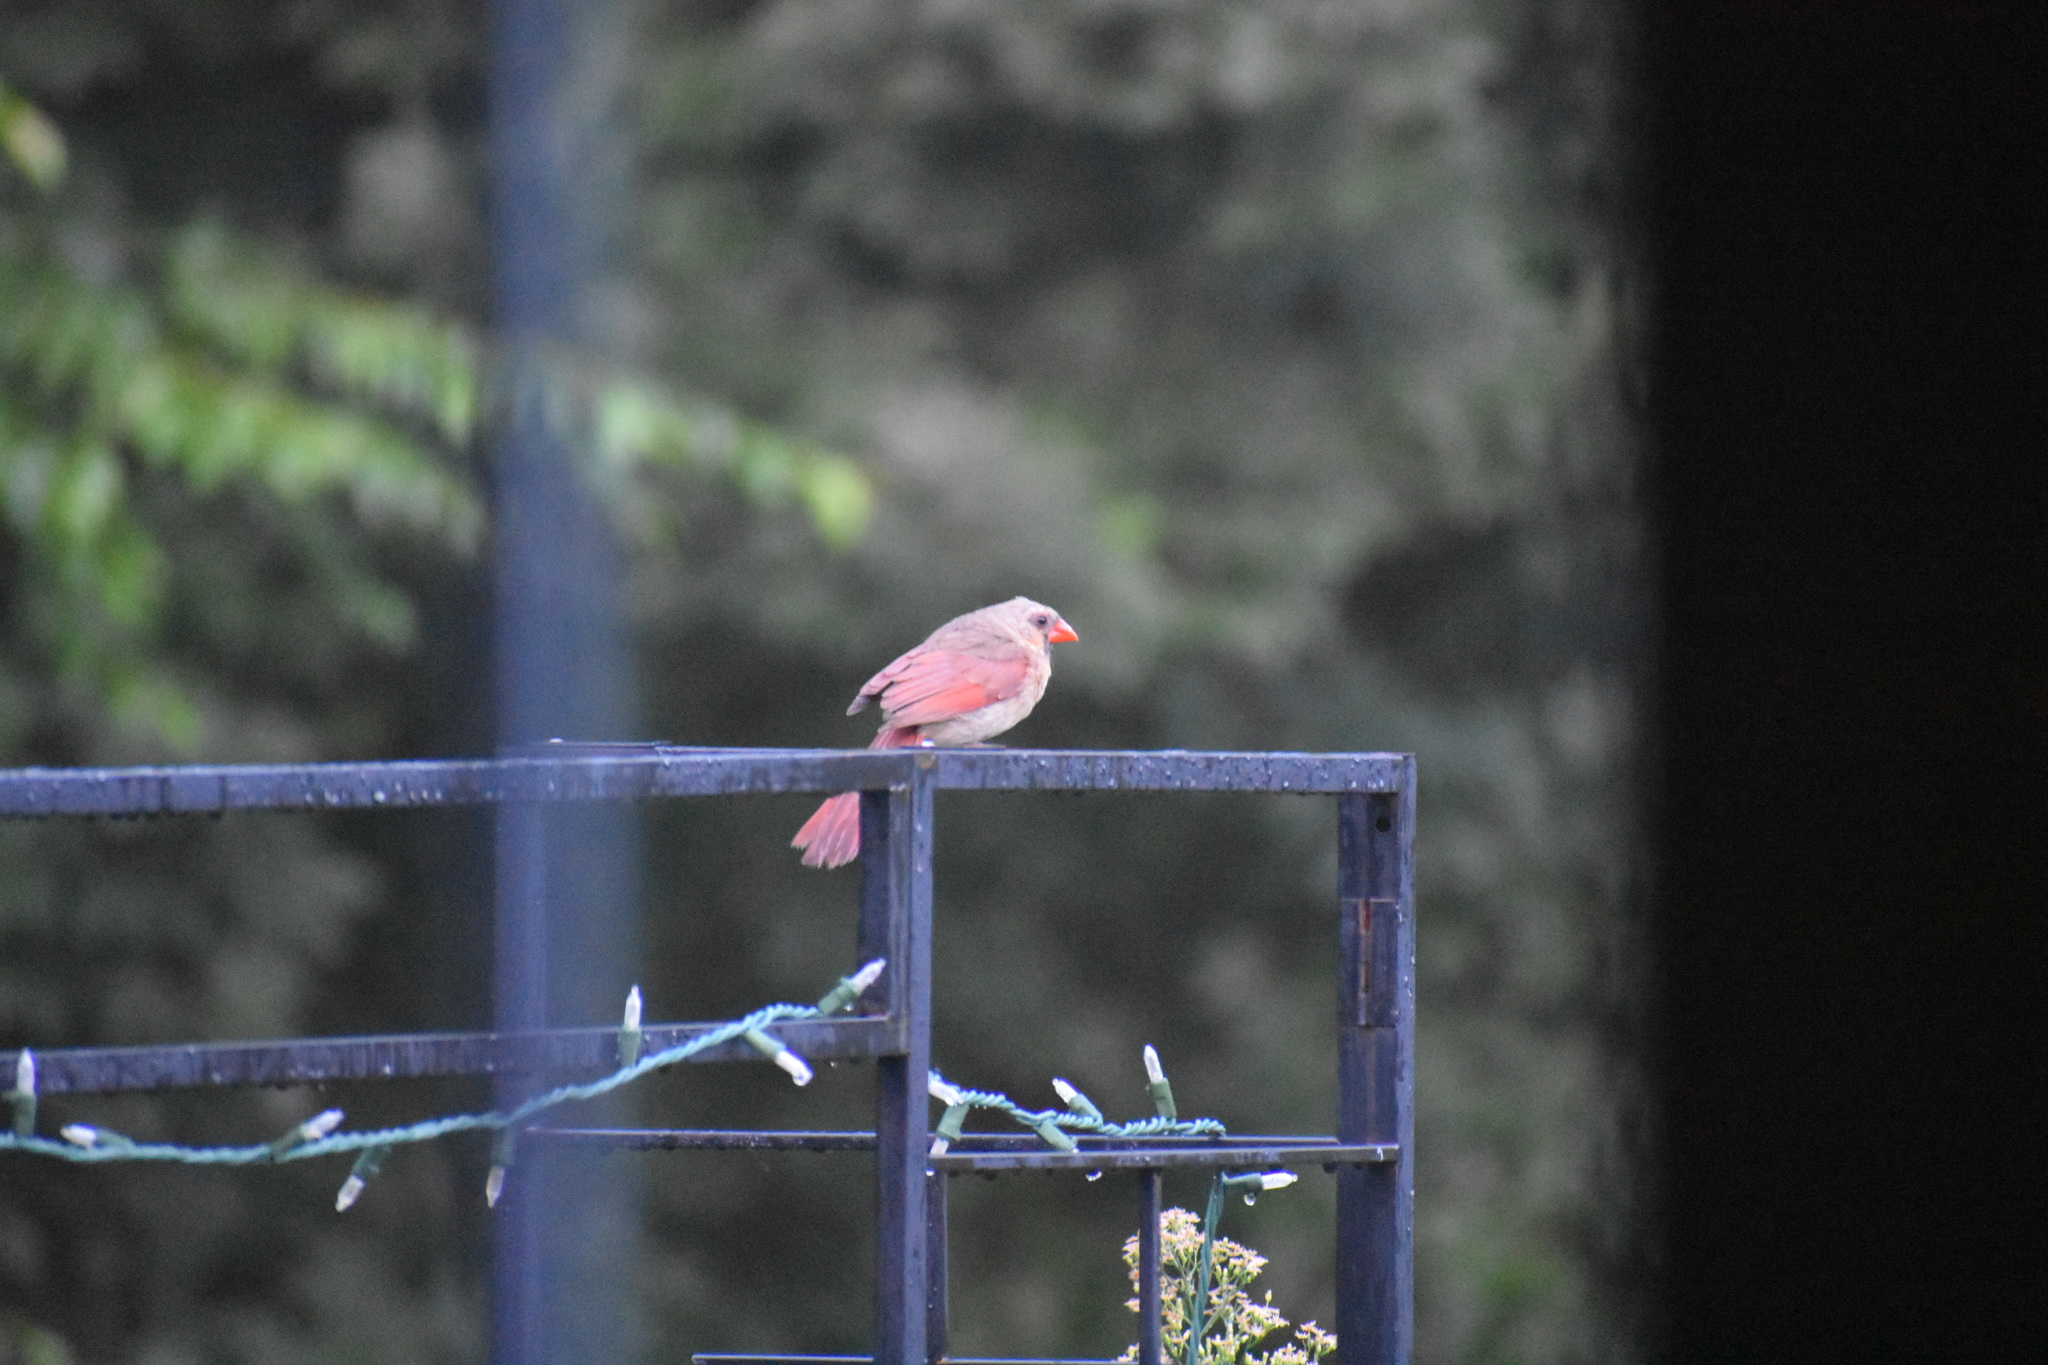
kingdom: Animalia
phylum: Chordata
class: Aves
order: Passeriformes
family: Cardinalidae
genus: Cardinalis
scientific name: Cardinalis cardinalis
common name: Northern cardinal
